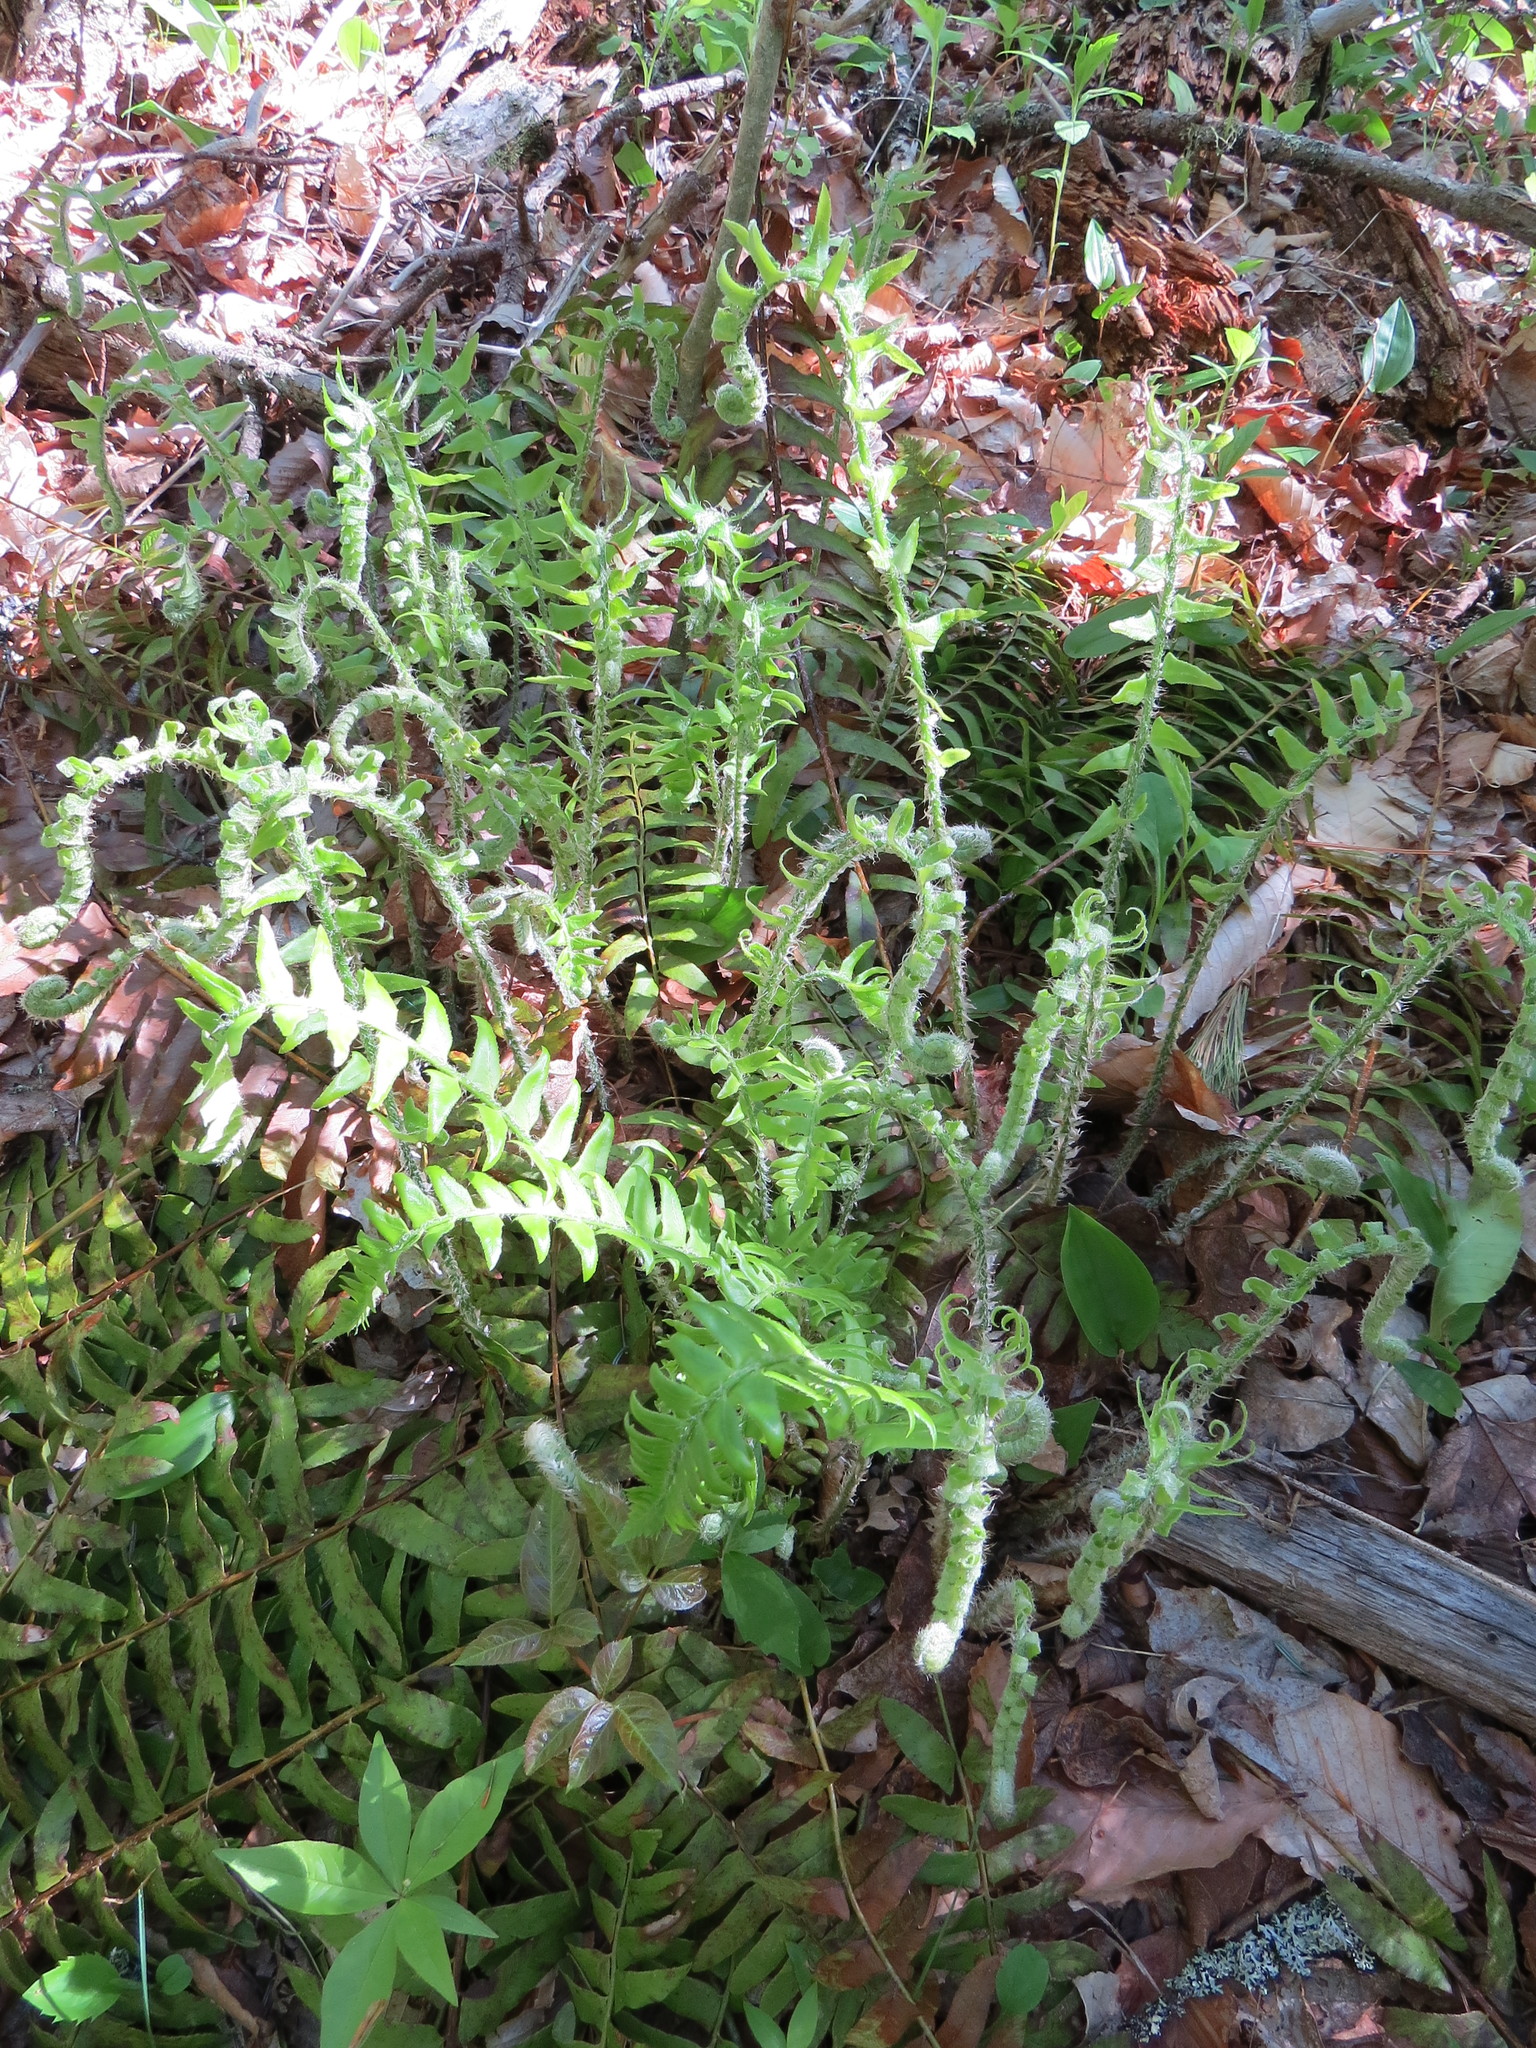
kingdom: Plantae
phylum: Tracheophyta
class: Polypodiopsida
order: Polypodiales
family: Dryopteridaceae
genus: Polystichum
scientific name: Polystichum acrostichoides
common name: Christmas fern
